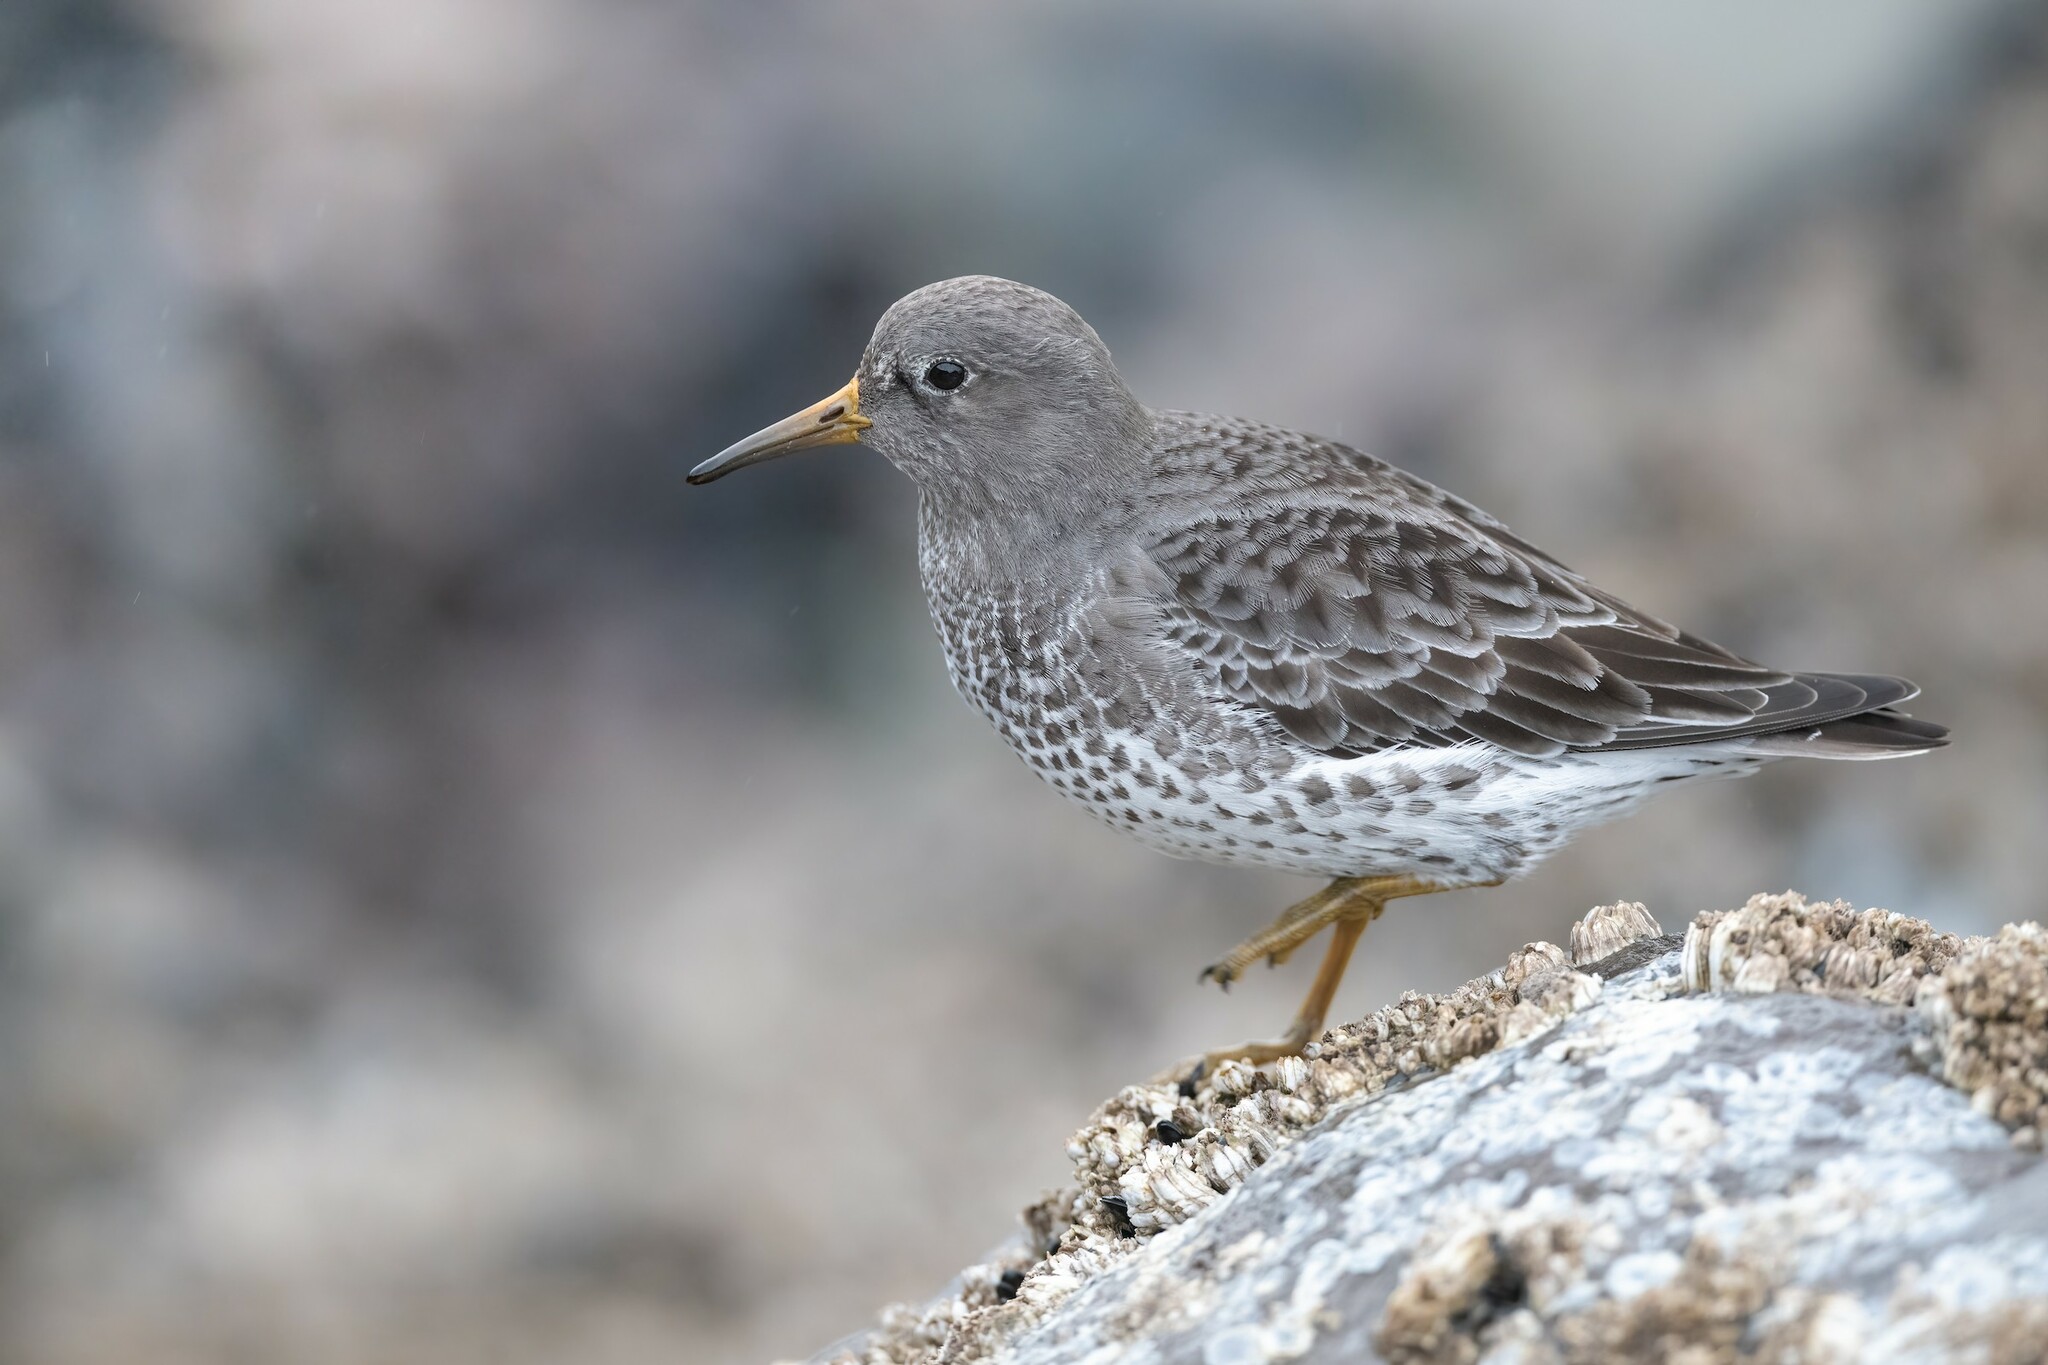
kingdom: Animalia
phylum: Chordata
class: Aves
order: Charadriiformes
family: Scolopacidae
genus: Calidris
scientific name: Calidris ptilocnemis
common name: Rock sandpiper
